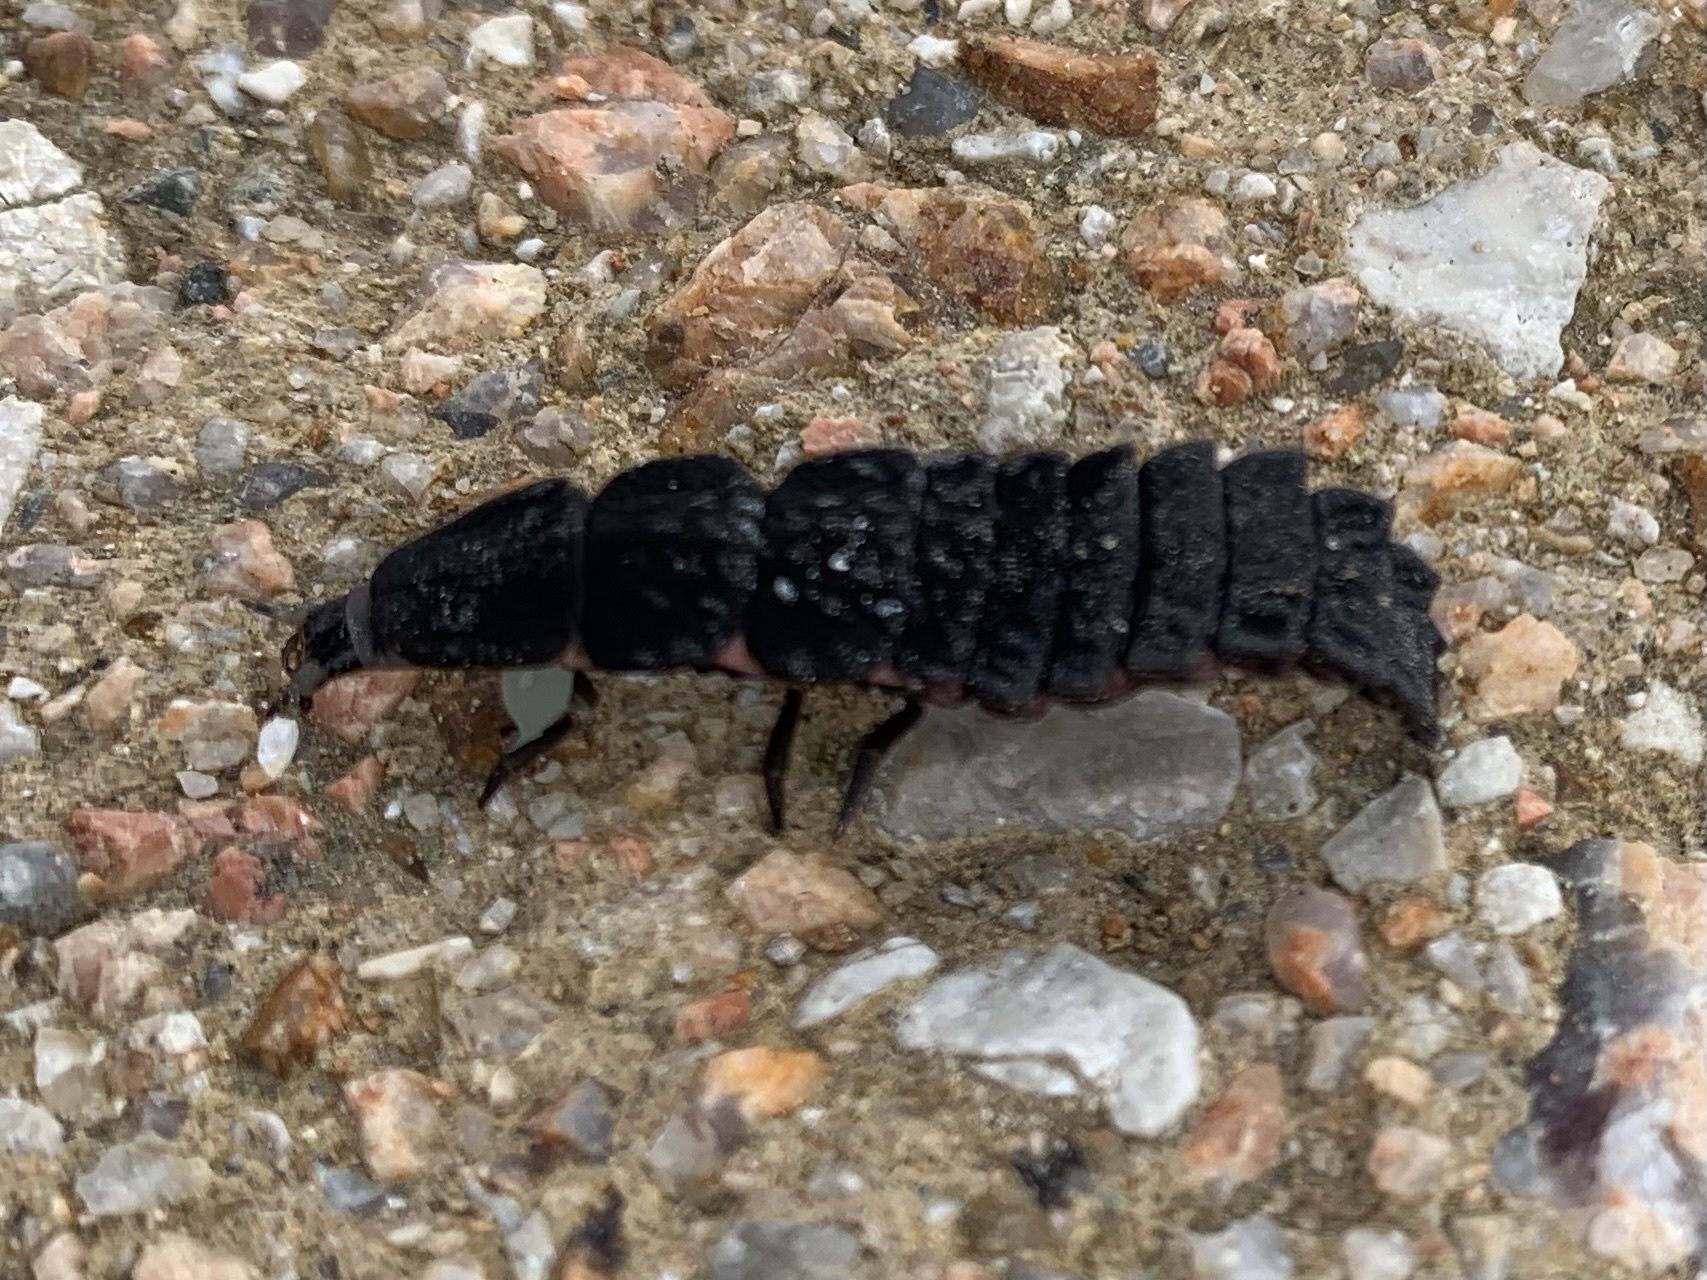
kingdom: Animalia
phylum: Arthropoda
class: Insecta
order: Coleoptera
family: Lampyridae
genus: Nyctophila
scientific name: Nyctophila reichii
